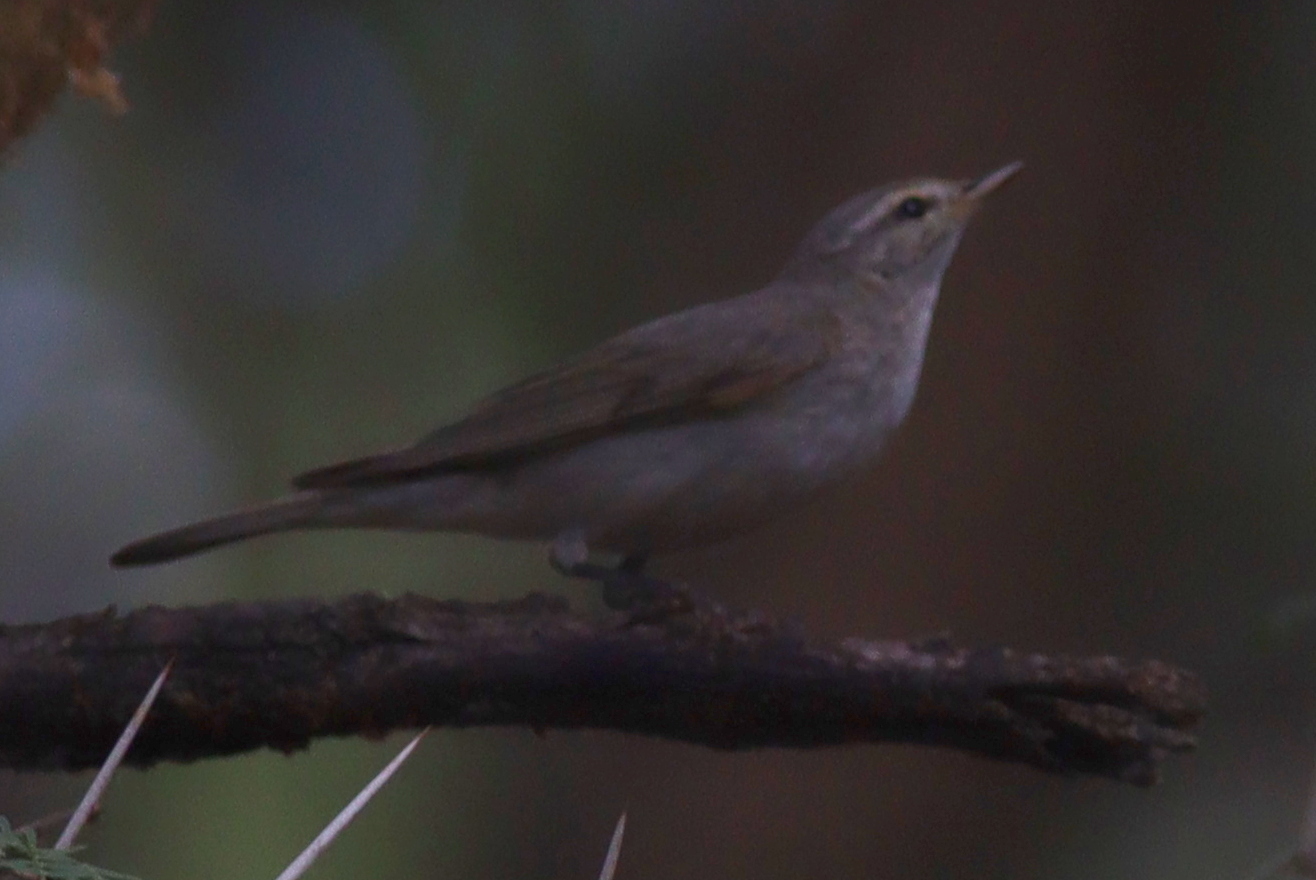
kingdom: Animalia
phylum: Chordata
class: Aves
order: Passeriformes
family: Phylloscopidae
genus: Phylloscopus
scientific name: Phylloscopus trochilus
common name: Willow warbler
